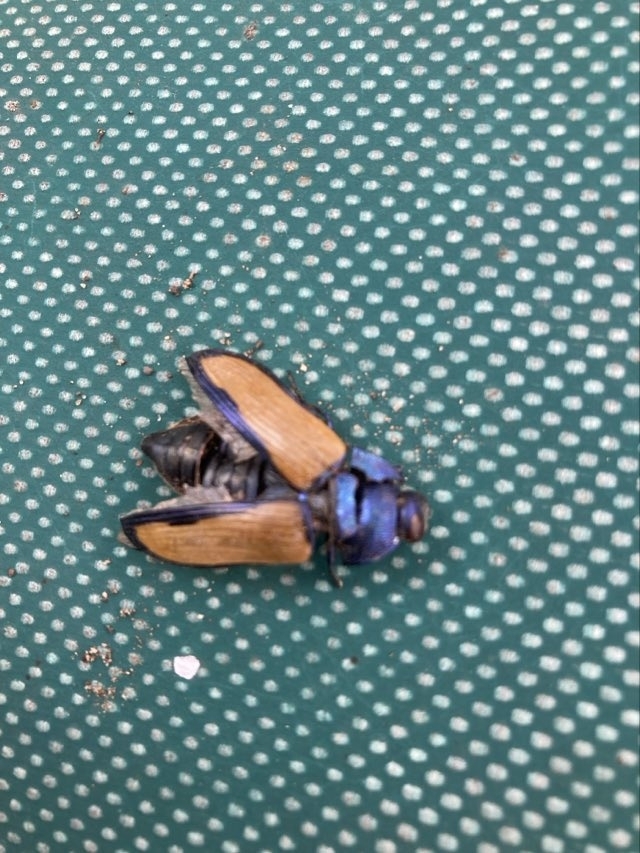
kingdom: Animalia
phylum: Arthropoda
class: Insecta
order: Coleoptera
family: Buprestidae
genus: Temognatha
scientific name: Temognatha suturalis
